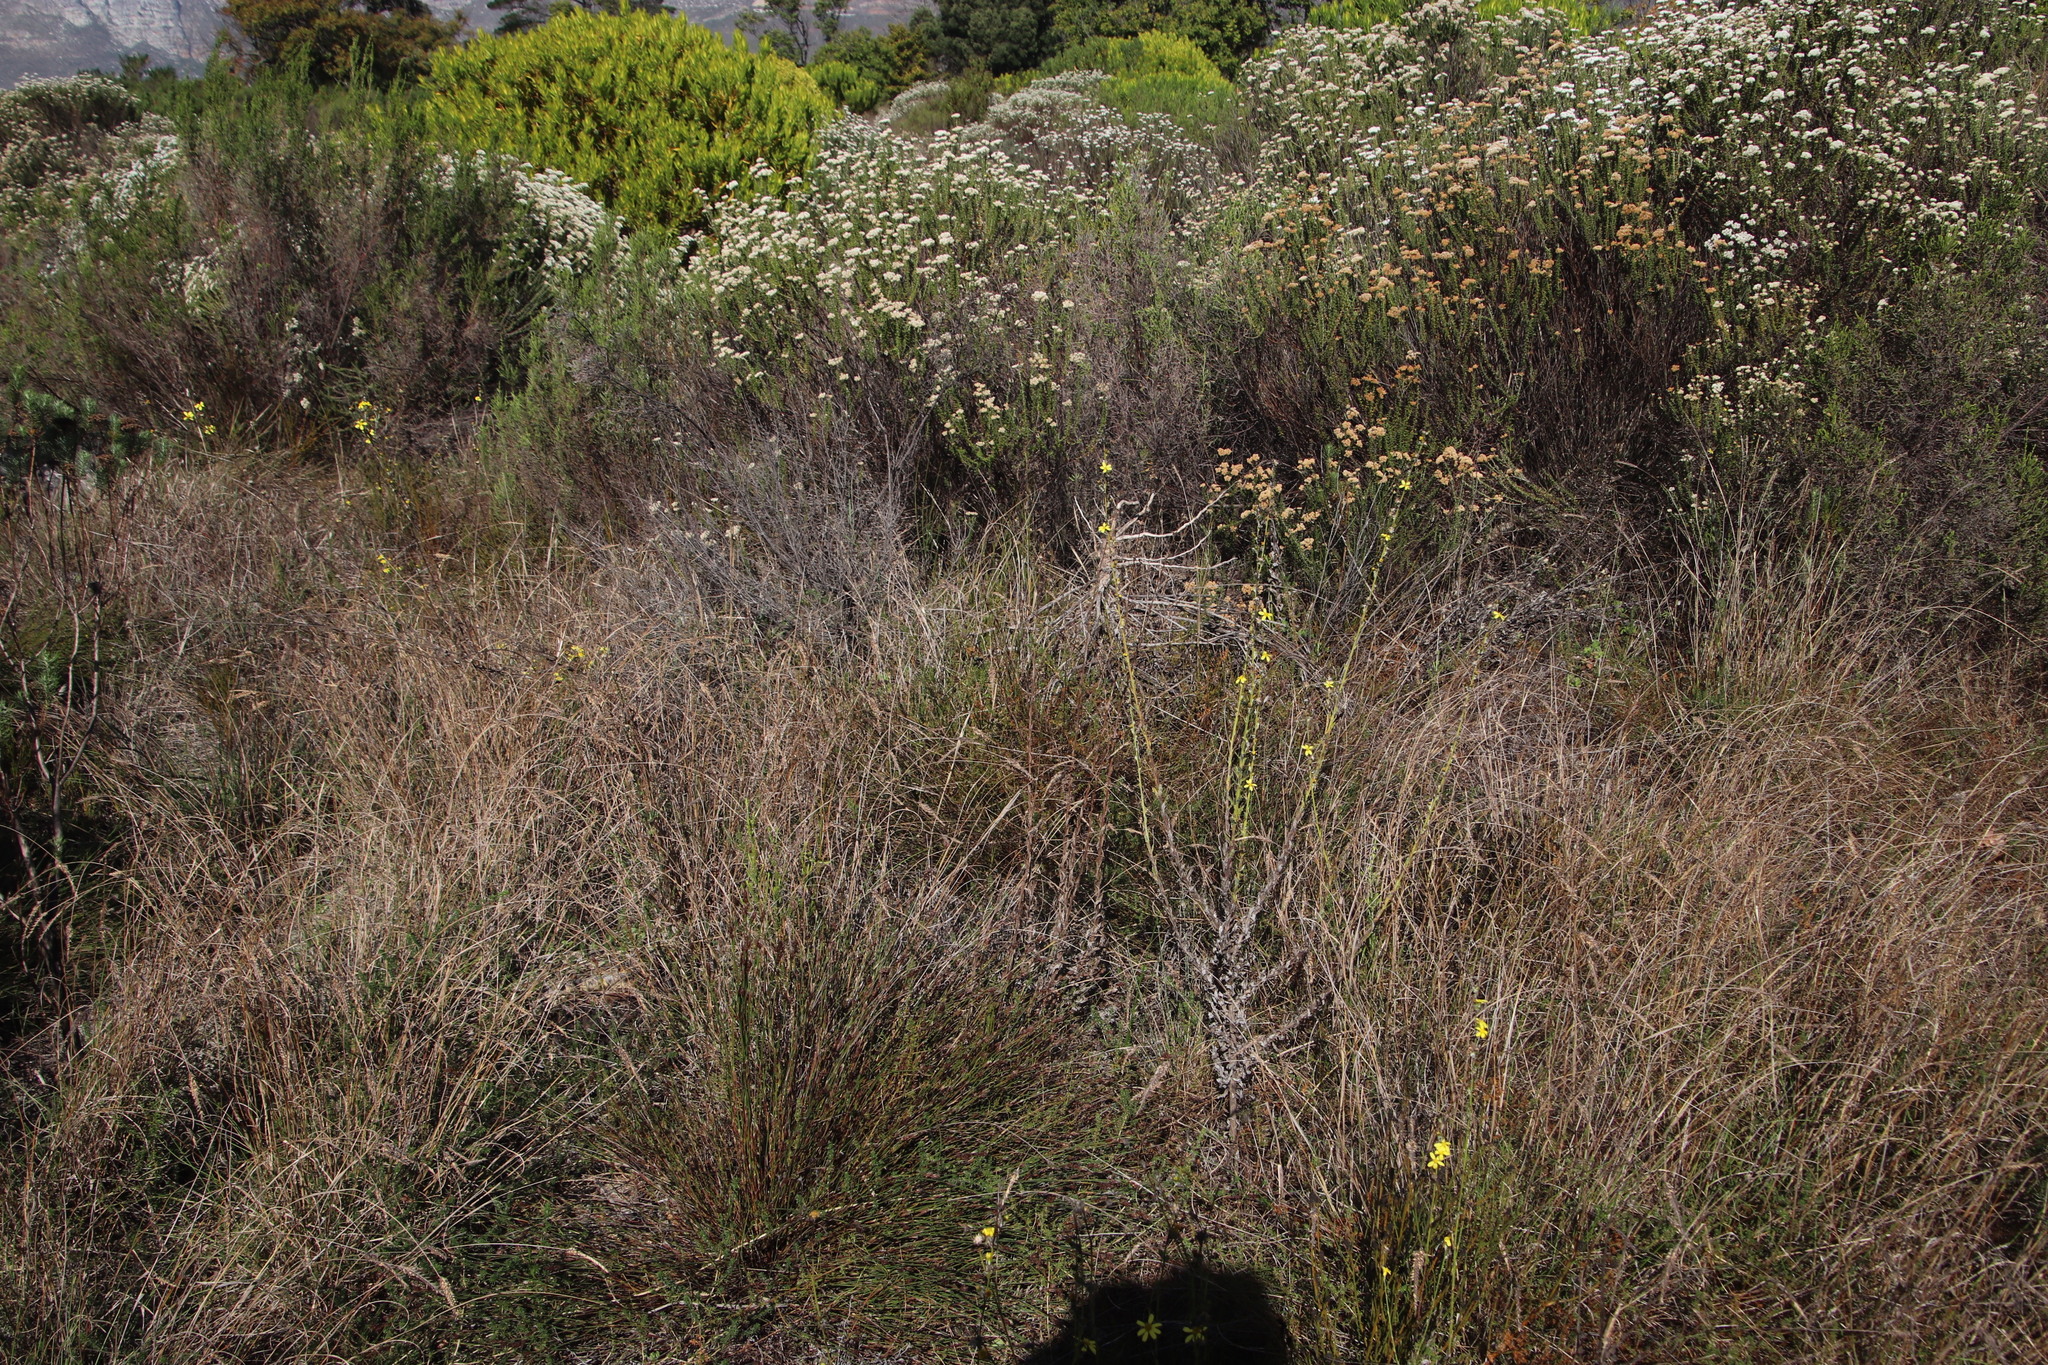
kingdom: Plantae
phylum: Tracheophyta
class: Liliopsida
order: Poales
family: Poaceae
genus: Tribolium
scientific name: Tribolium uniolae
